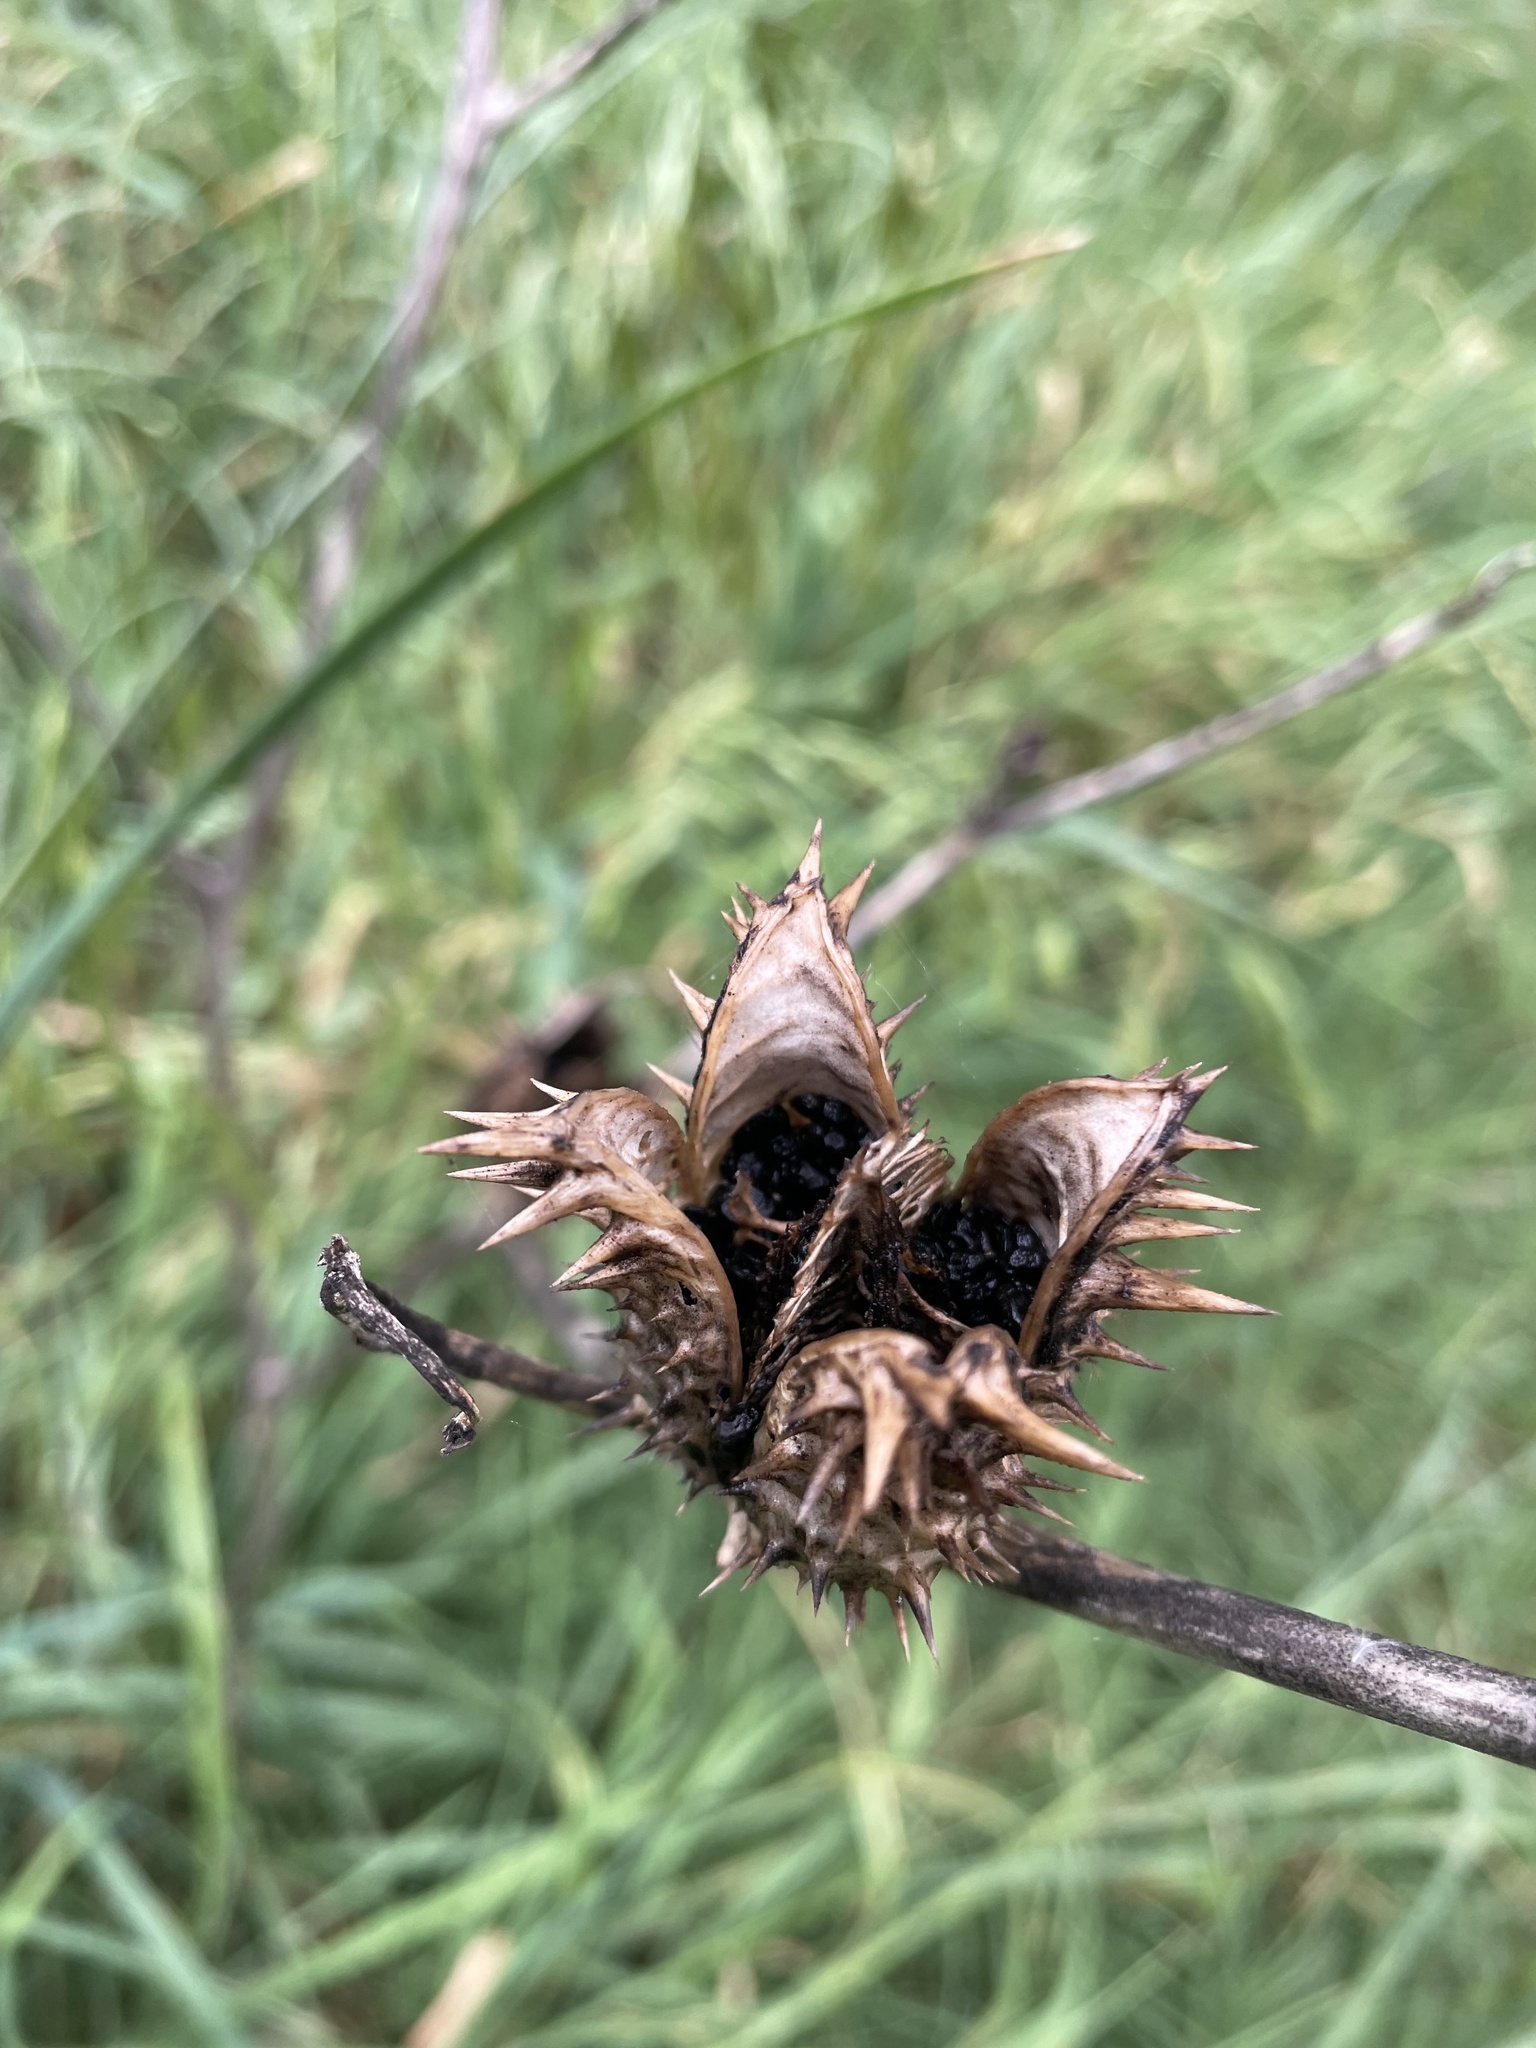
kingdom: Plantae
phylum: Tracheophyta
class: Magnoliopsida
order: Solanales
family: Solanaceae
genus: Datura
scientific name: Datura stramonium
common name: Thorn-apple
